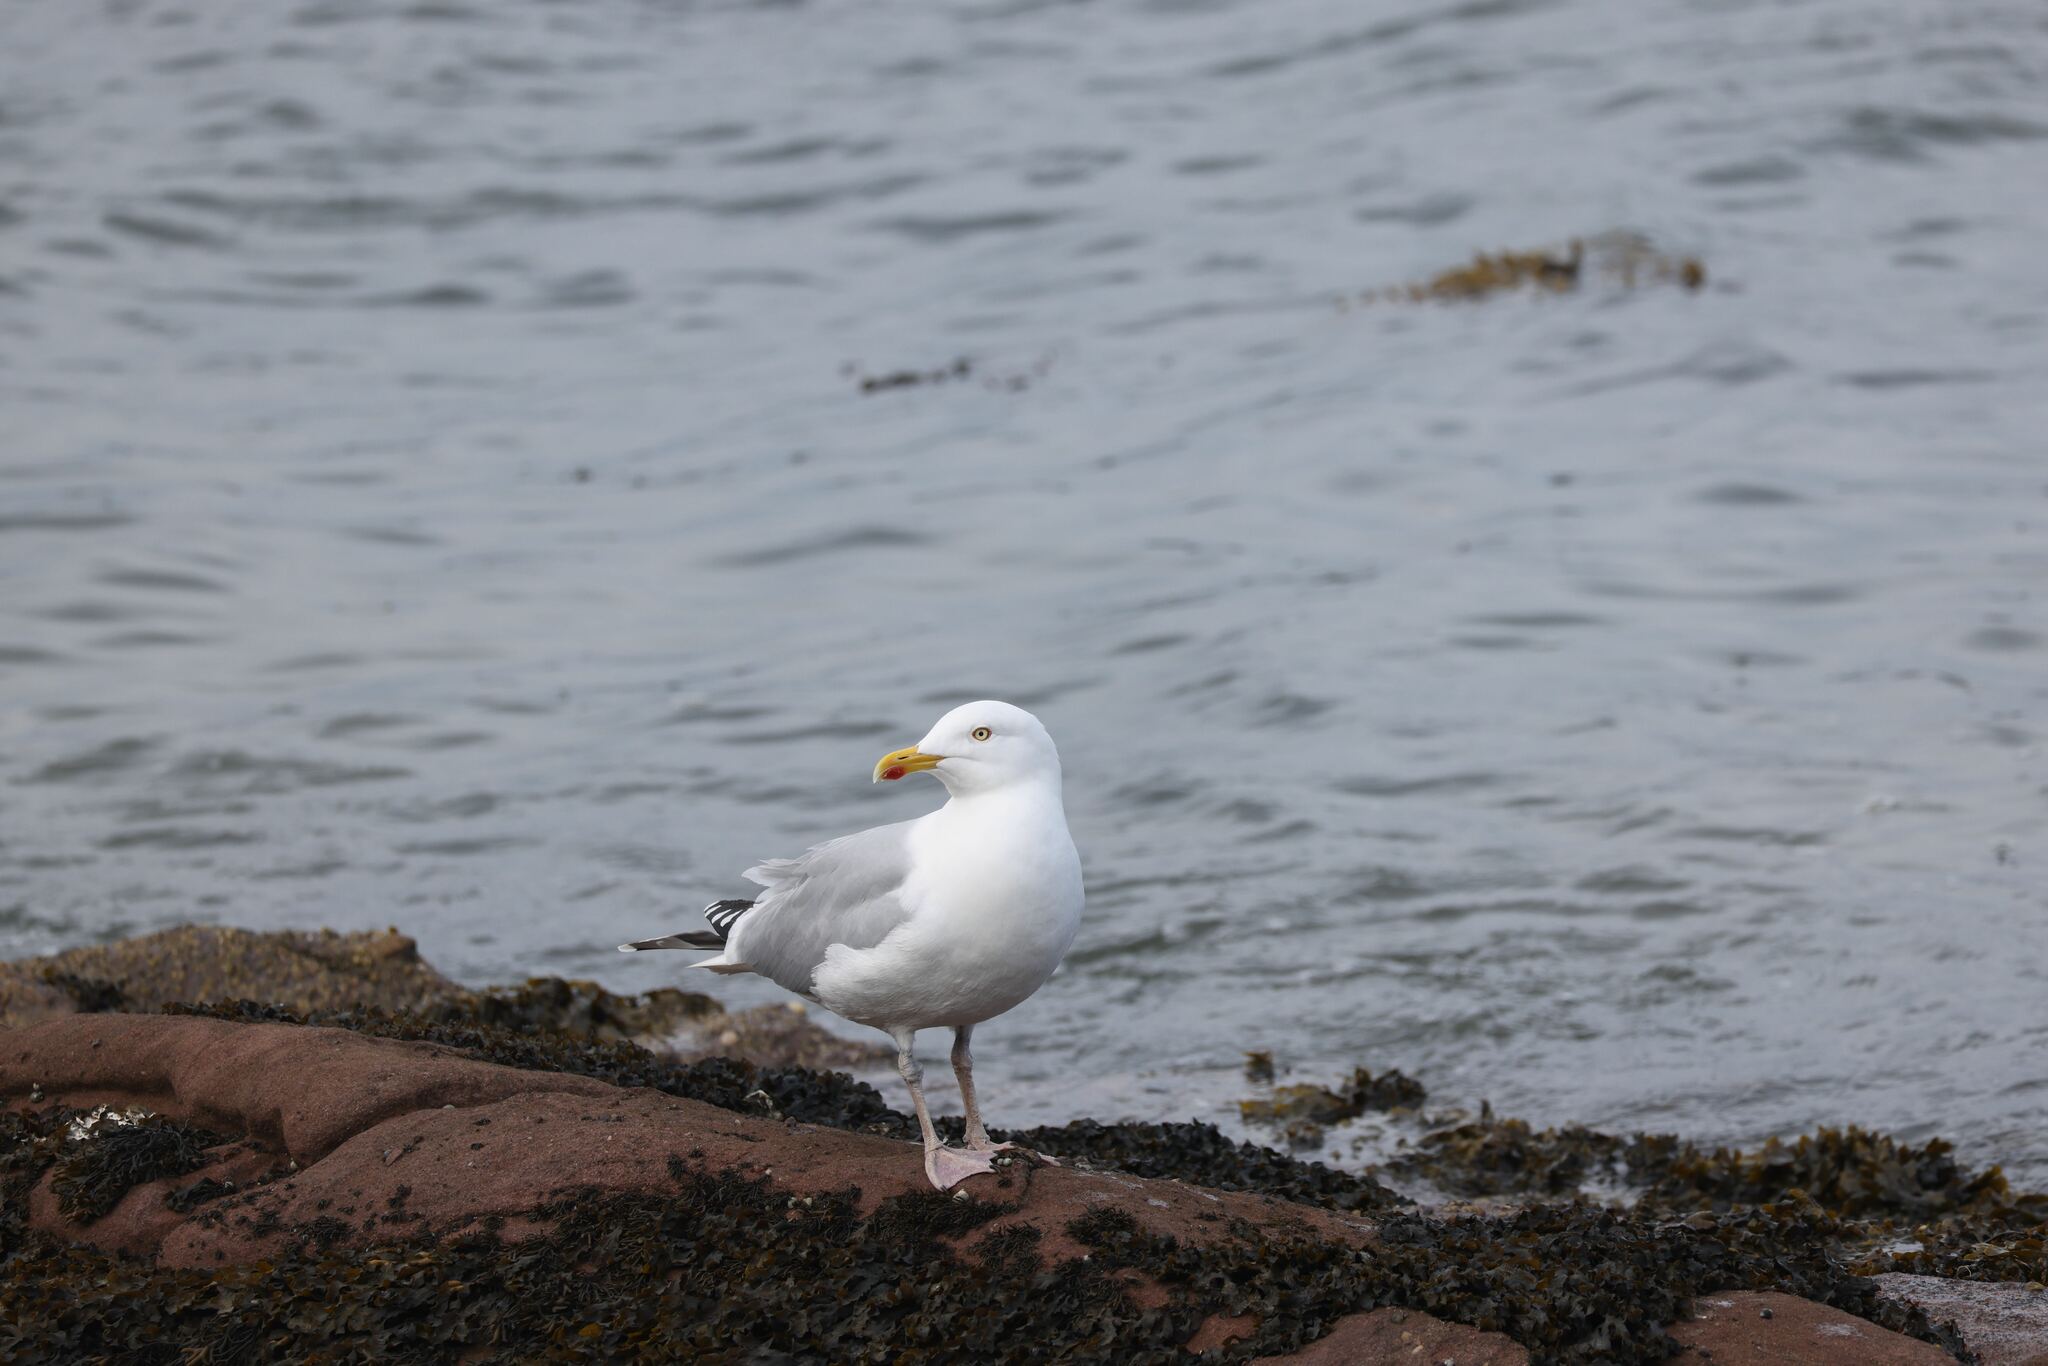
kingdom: Animalia
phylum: Chordata
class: Aves
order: Charadriiformes
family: Laridae
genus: Larus
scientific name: Larus argentatus
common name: Herring gull
